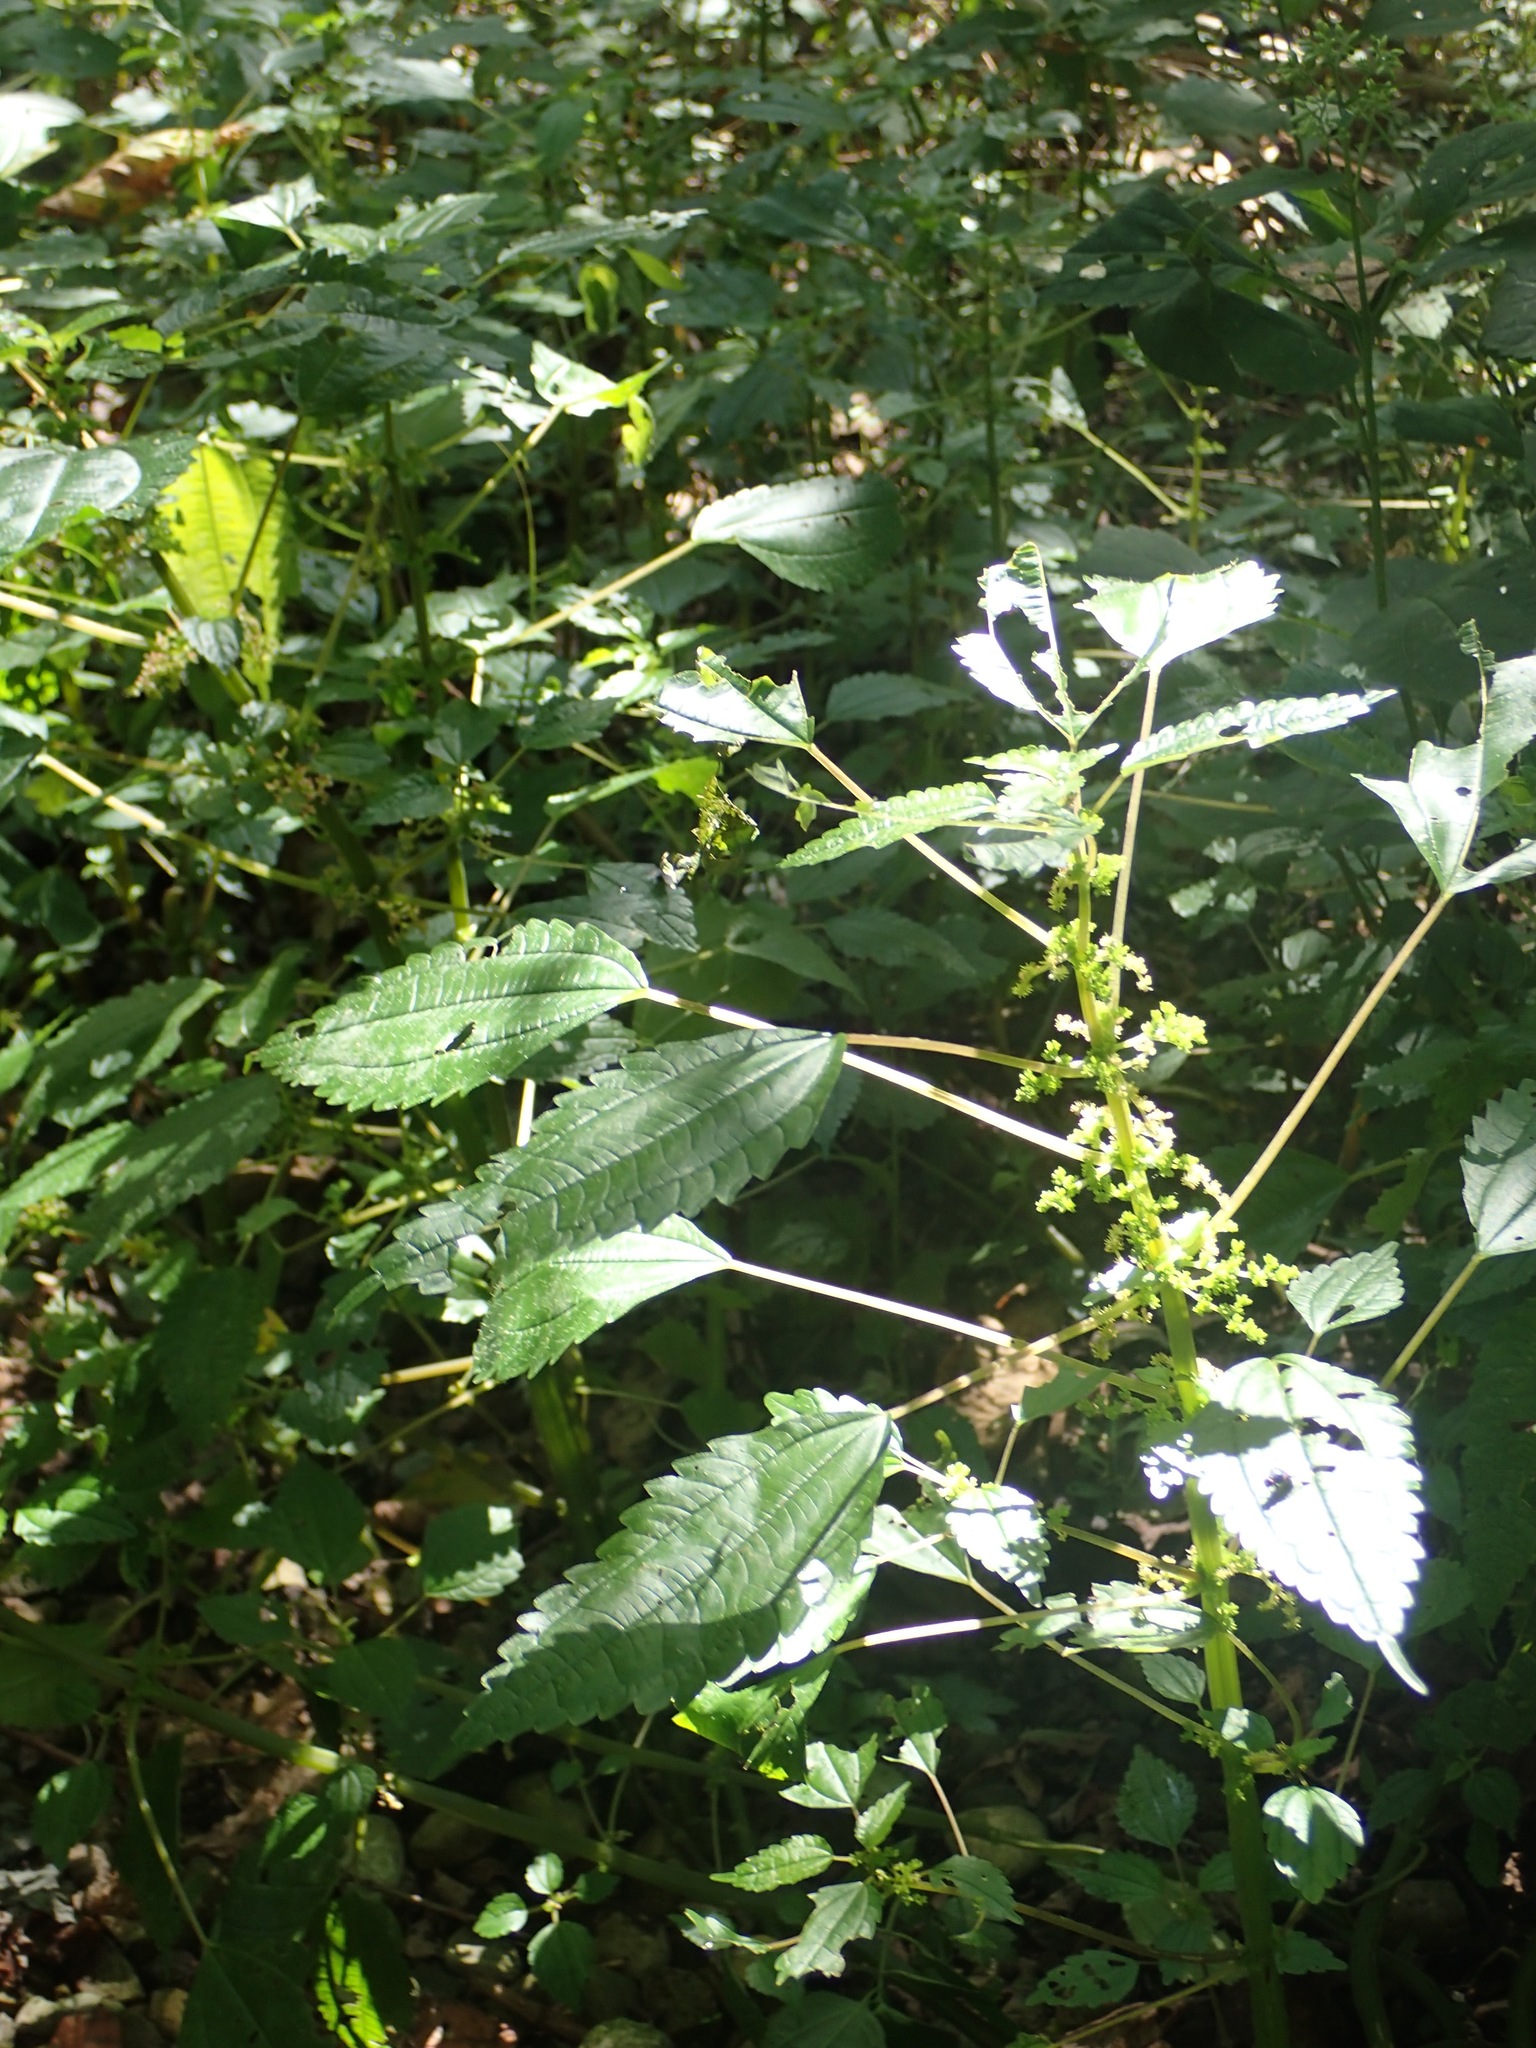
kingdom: Plantae
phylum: Tracheophyta
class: Magnoliopsida
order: Rosales
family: Urticaceae
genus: Pilea
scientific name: Pilea pumila
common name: Clearweed
